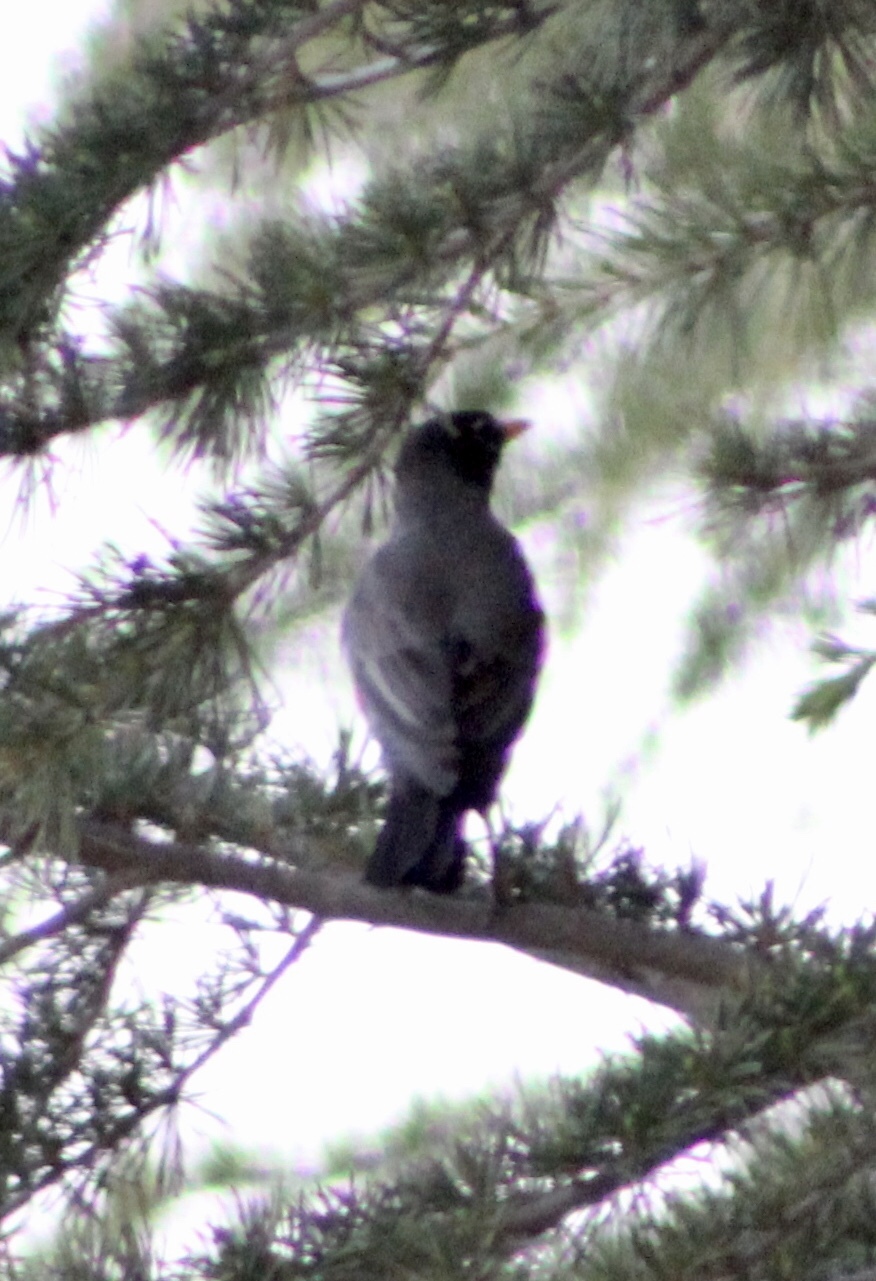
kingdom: Animalia
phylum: Chordata
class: Aves
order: Passeriformes
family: Turdidae
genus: Turdus
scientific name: Turdus migratorius
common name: American robin
